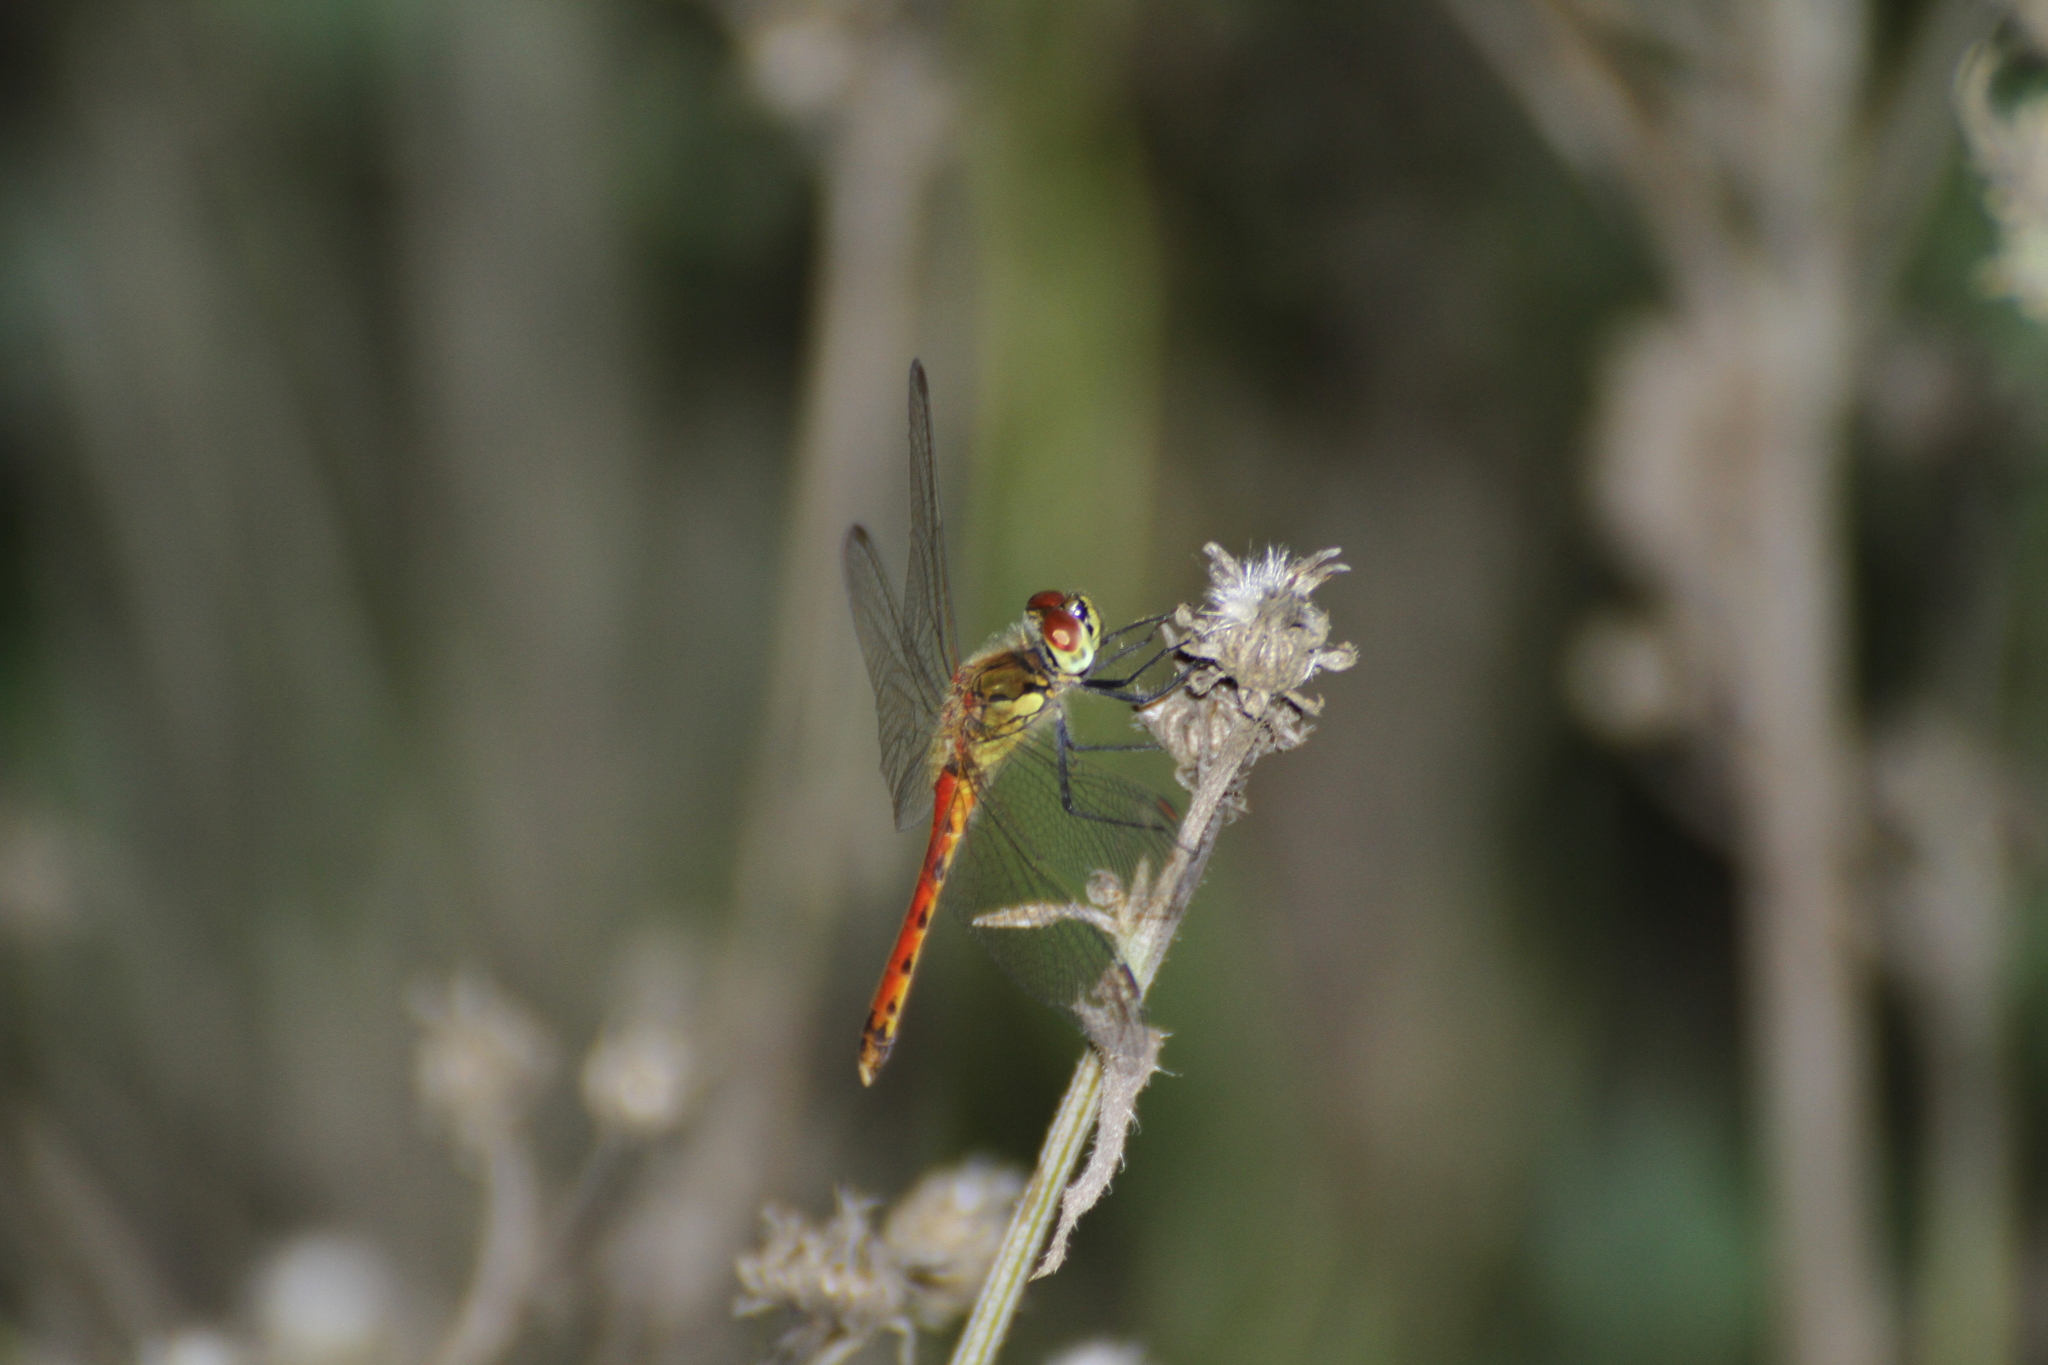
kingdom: Animalia
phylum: Arthropoda
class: Insecta
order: Odonata
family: Libellulidae
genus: Sympetrum
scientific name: Sympetrum depressiusculum
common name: Spotted darter
